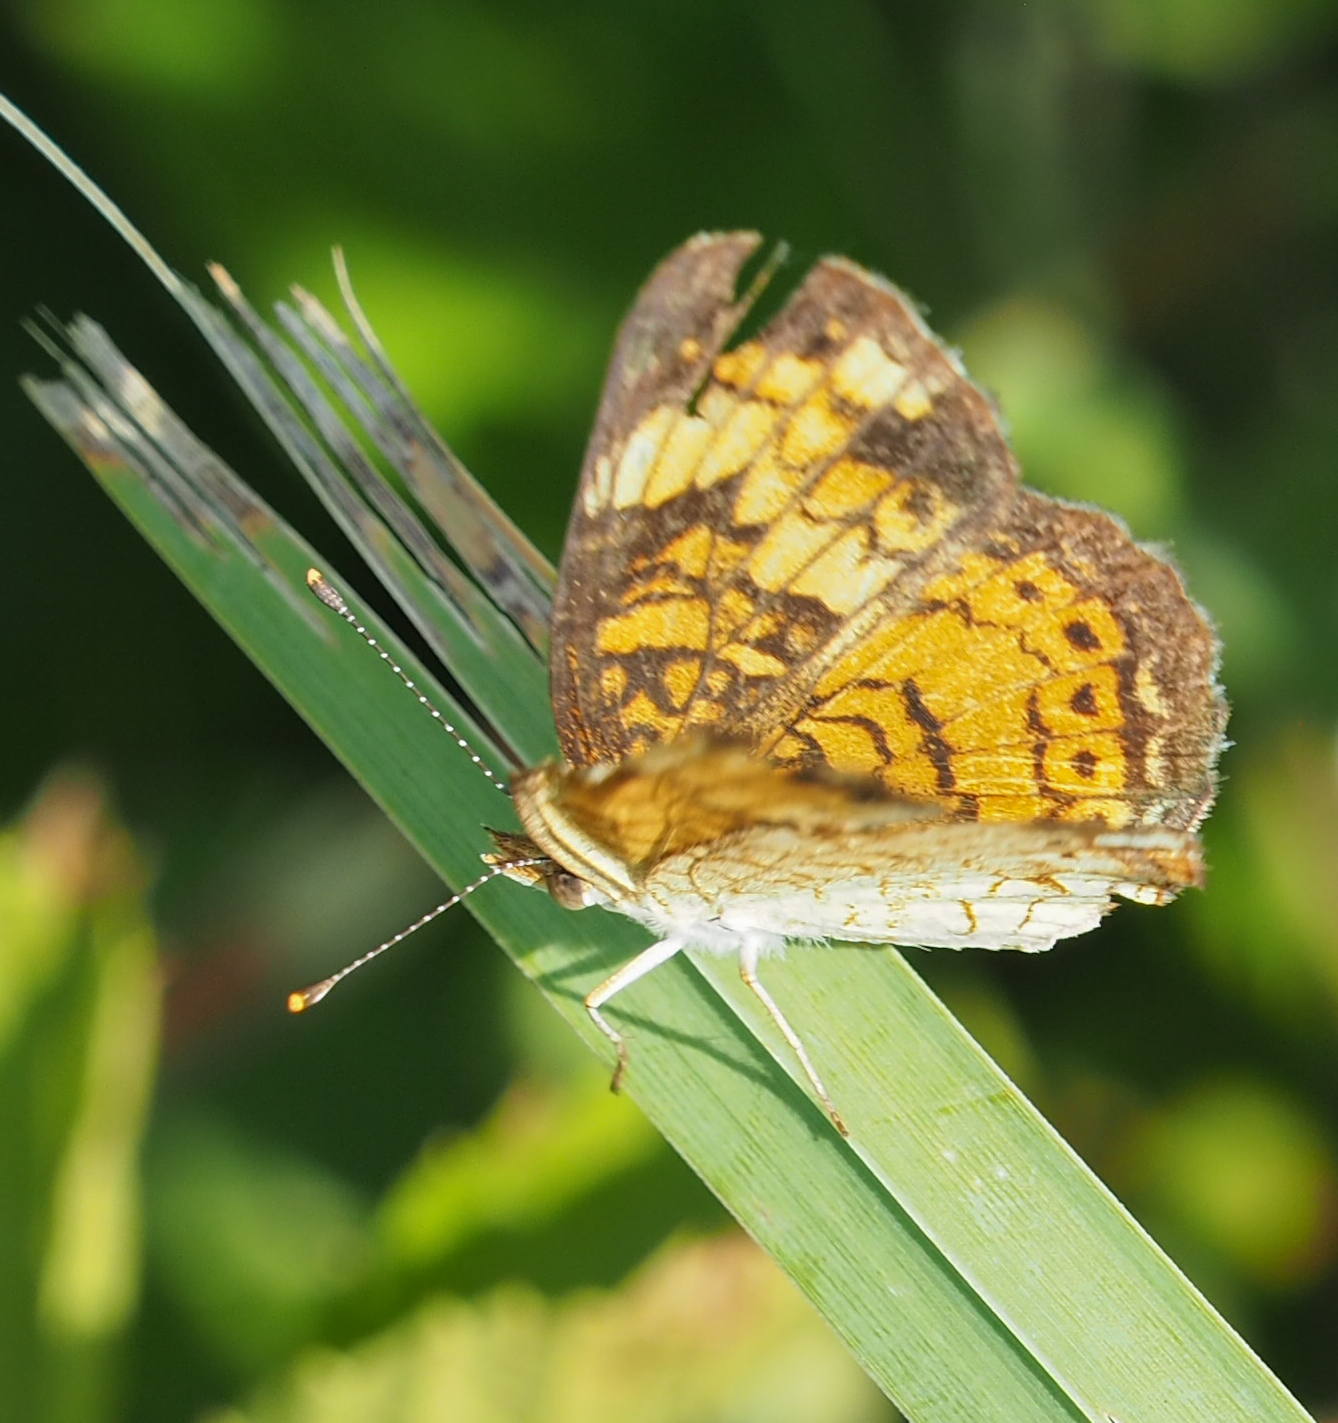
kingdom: Animalia
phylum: Arthropoda
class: Insecta
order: Lepidoptera
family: Nymphalidae
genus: Phyciodes
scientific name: Phyciodes tharos
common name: Pearl crescent
